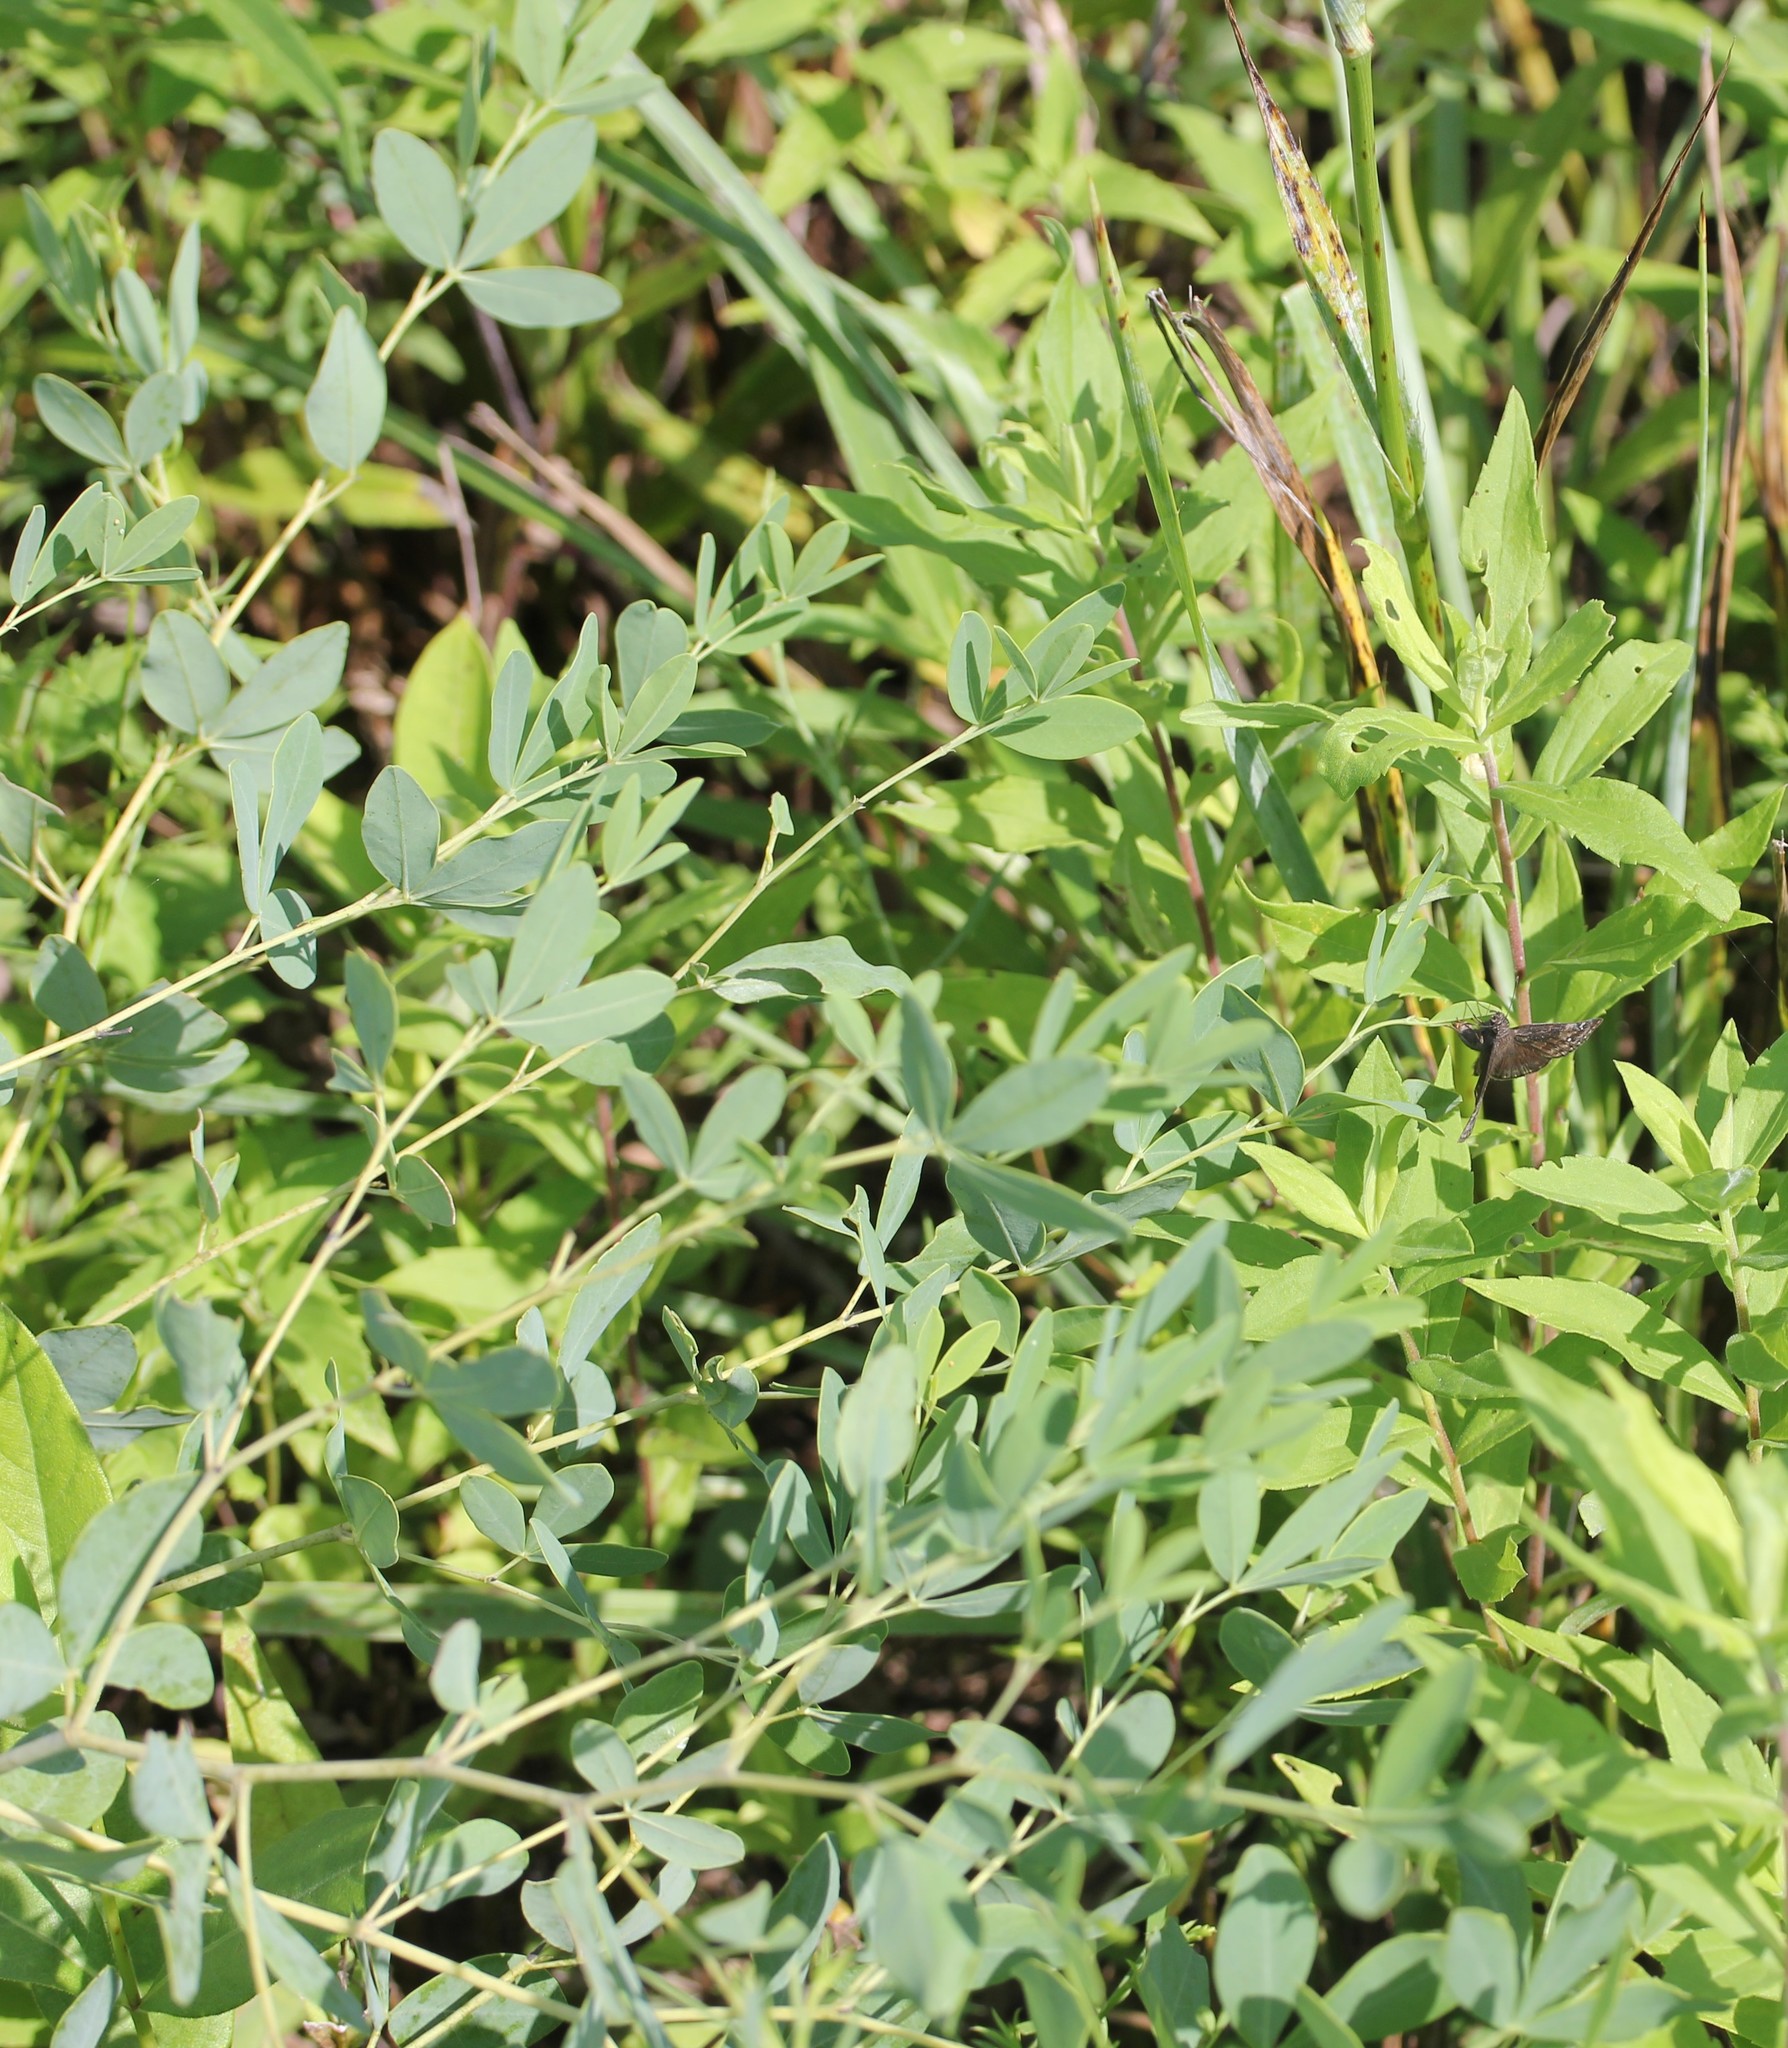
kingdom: Plantae
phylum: Tracheophyta
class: Magnoliopsida
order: Fabales
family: Fabaceae
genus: Baptisia
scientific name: Baptisia alba
